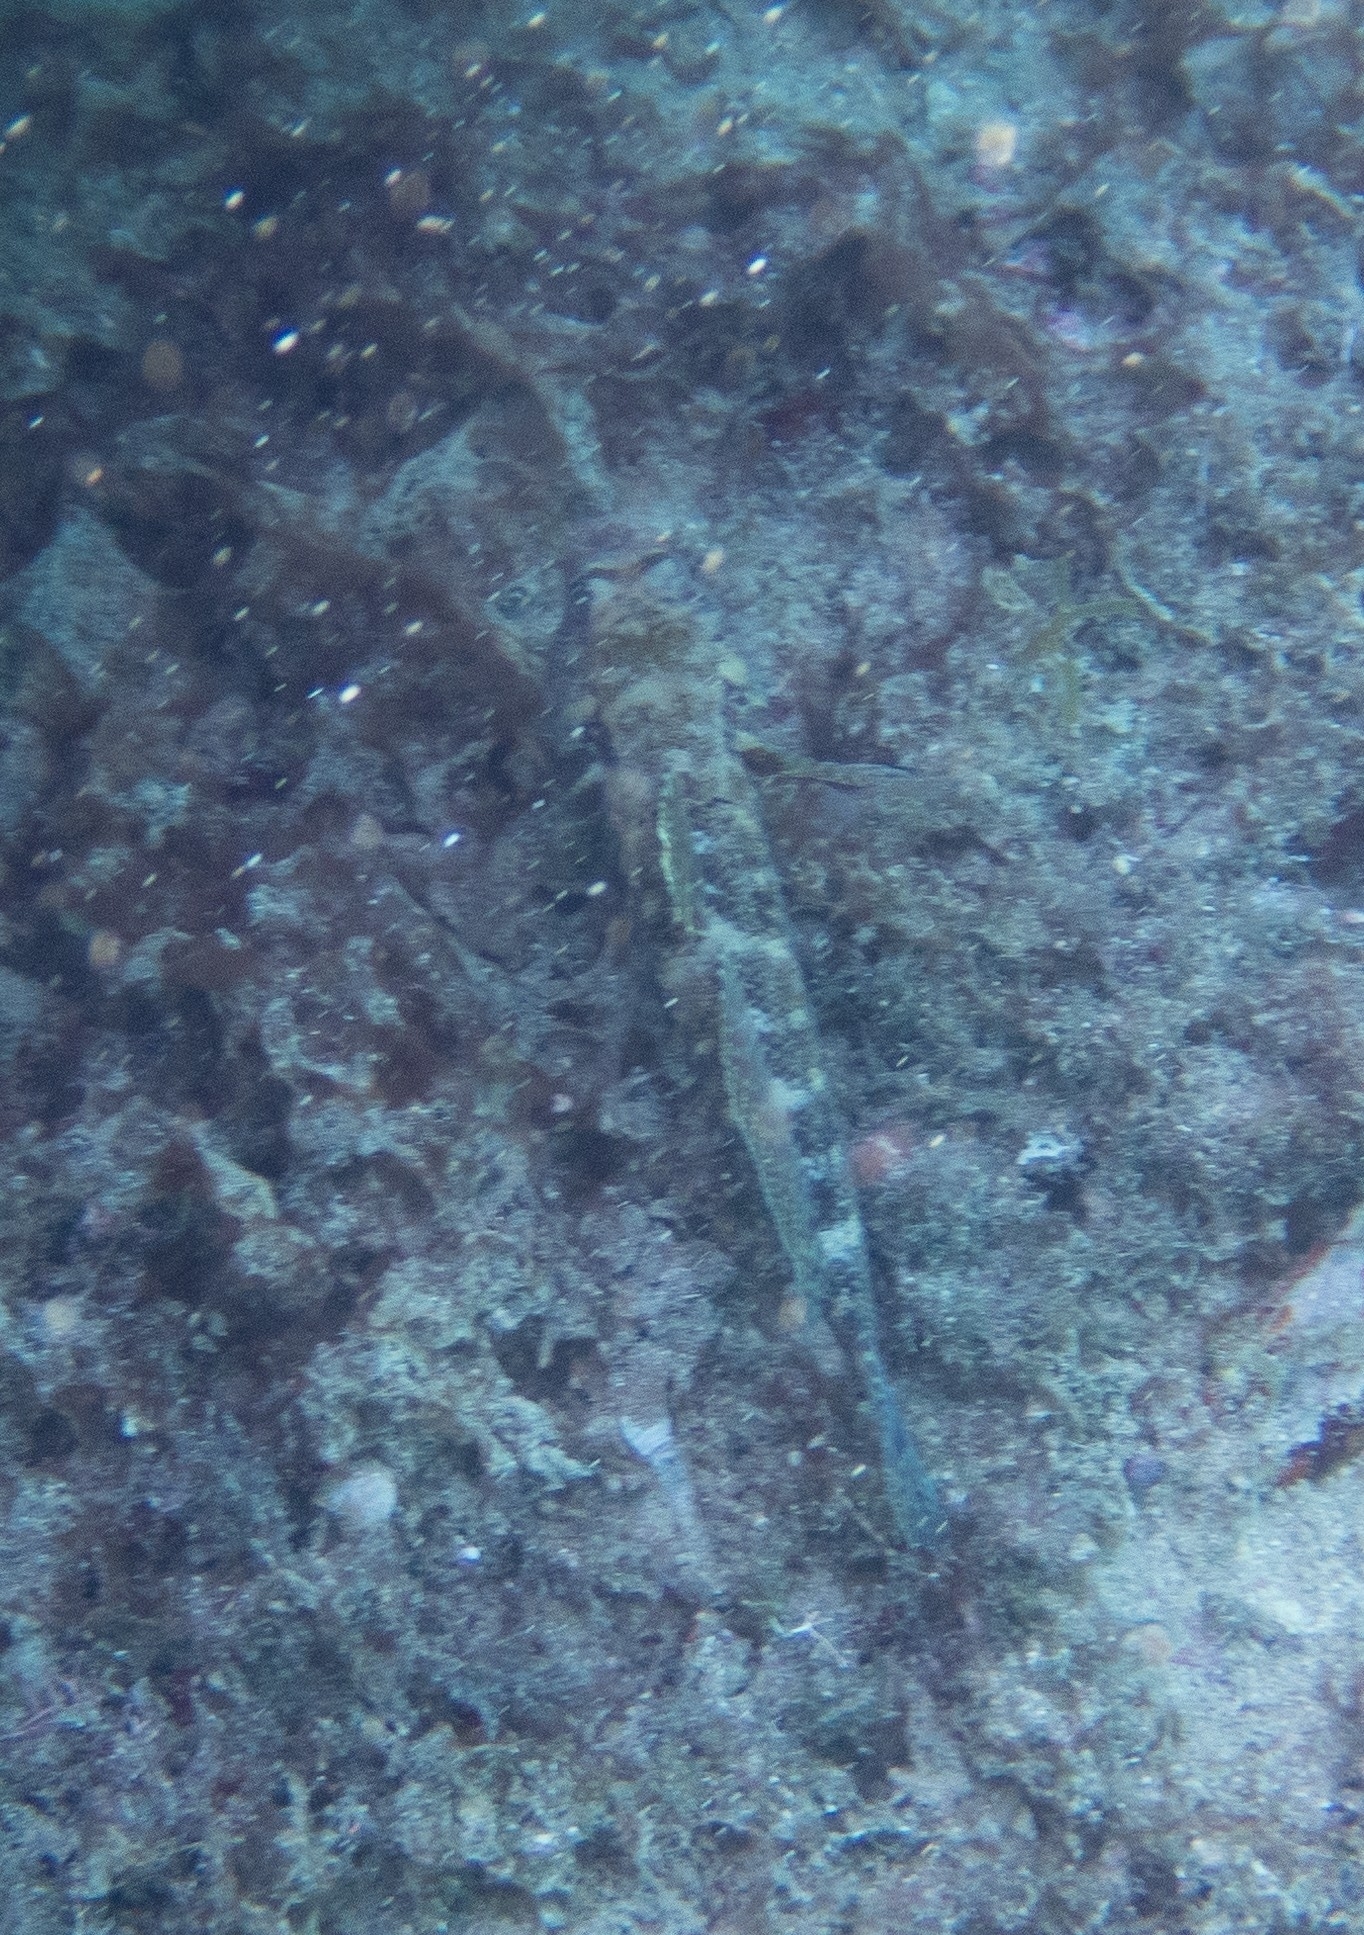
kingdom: Animalia
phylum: Chordata
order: Perciformes
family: Gobiidae
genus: Gobius
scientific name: Gobius cruentatus
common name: Red-mouthed goby
